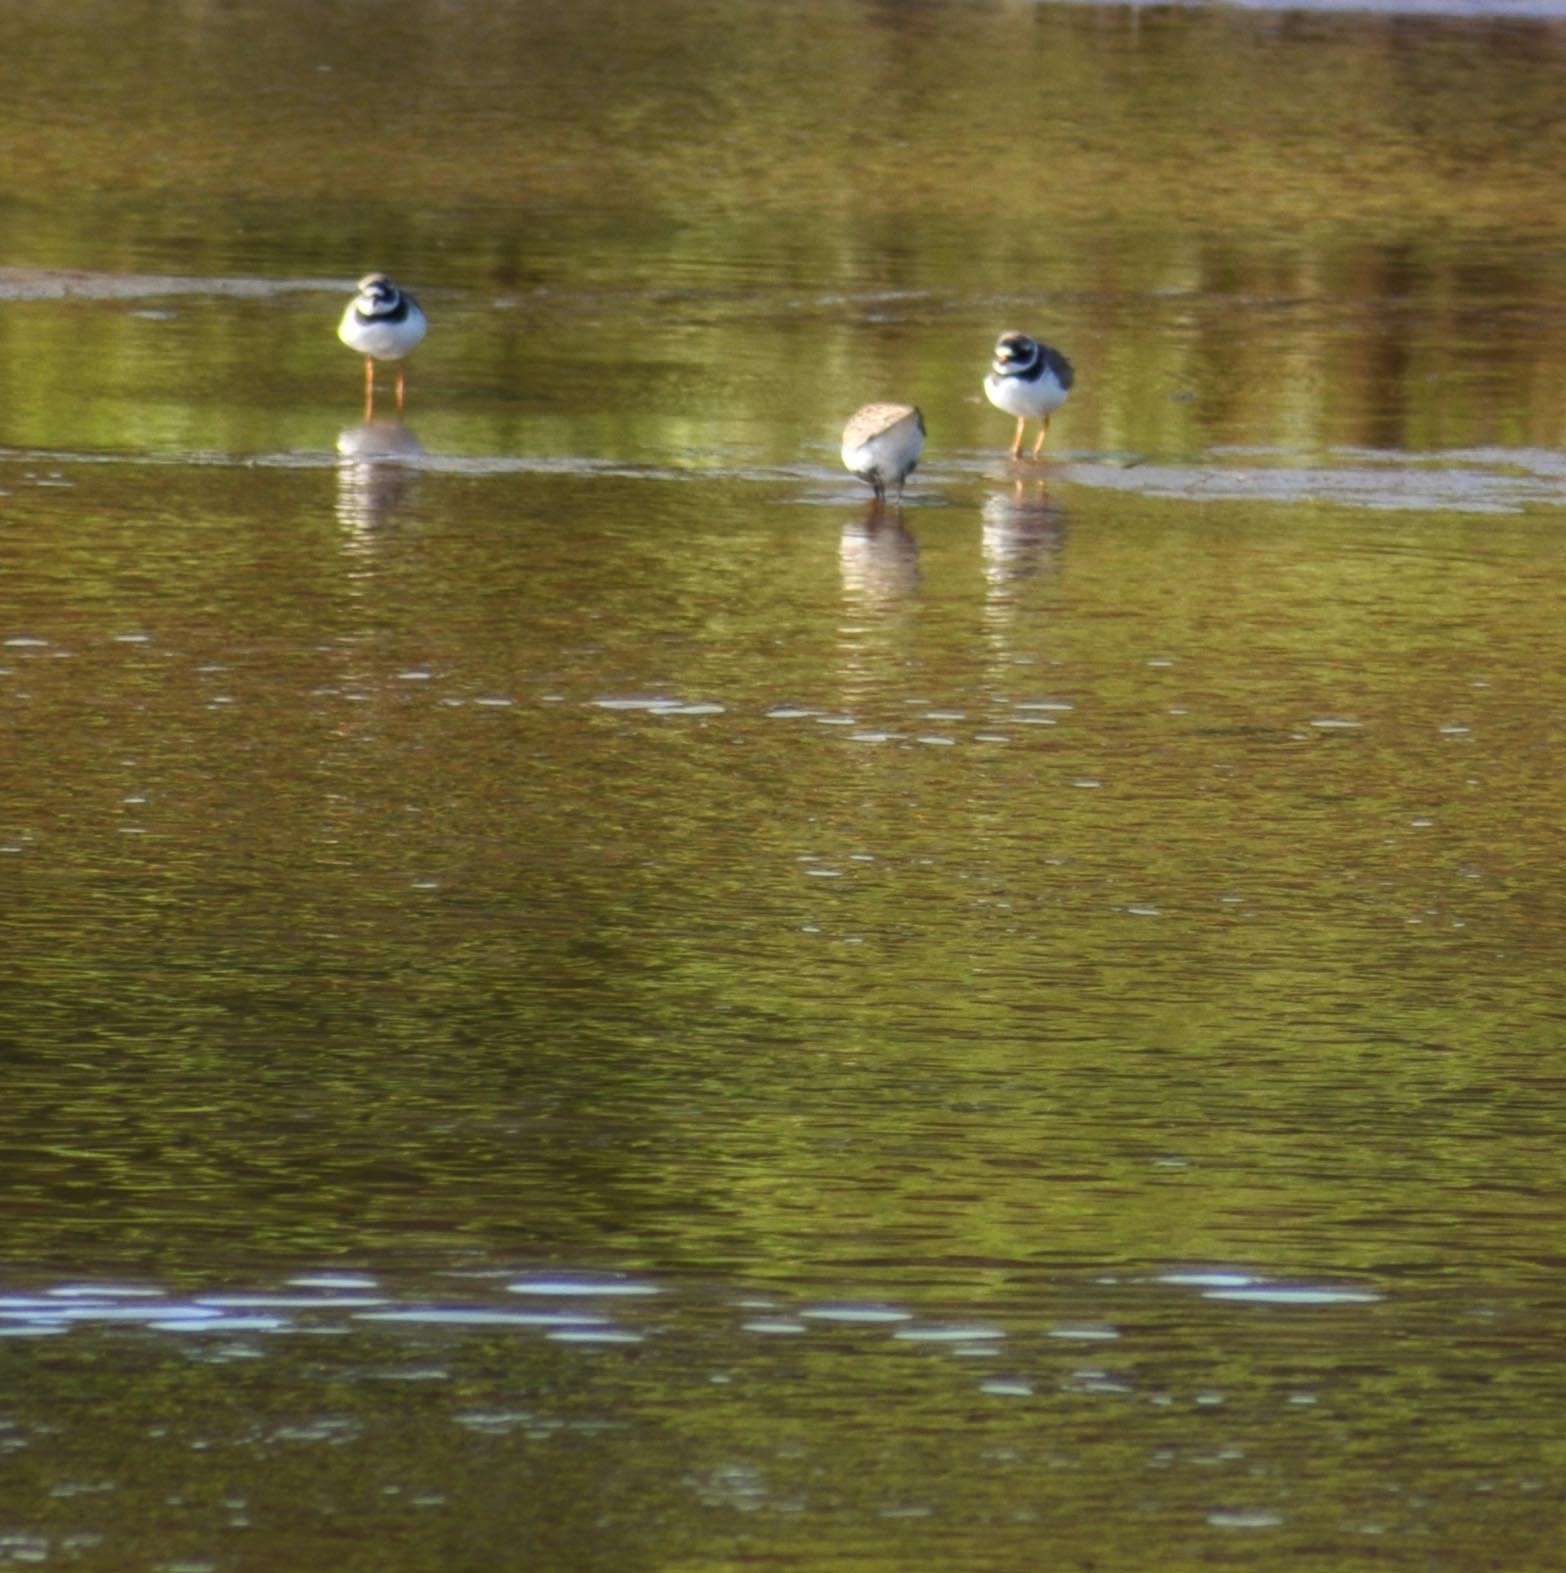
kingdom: Animalia
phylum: Chordata
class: Aves
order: Charadriiformes
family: Charadriidae
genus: Charadrius
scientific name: Charadrius hiaticula
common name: Common ringed plover
